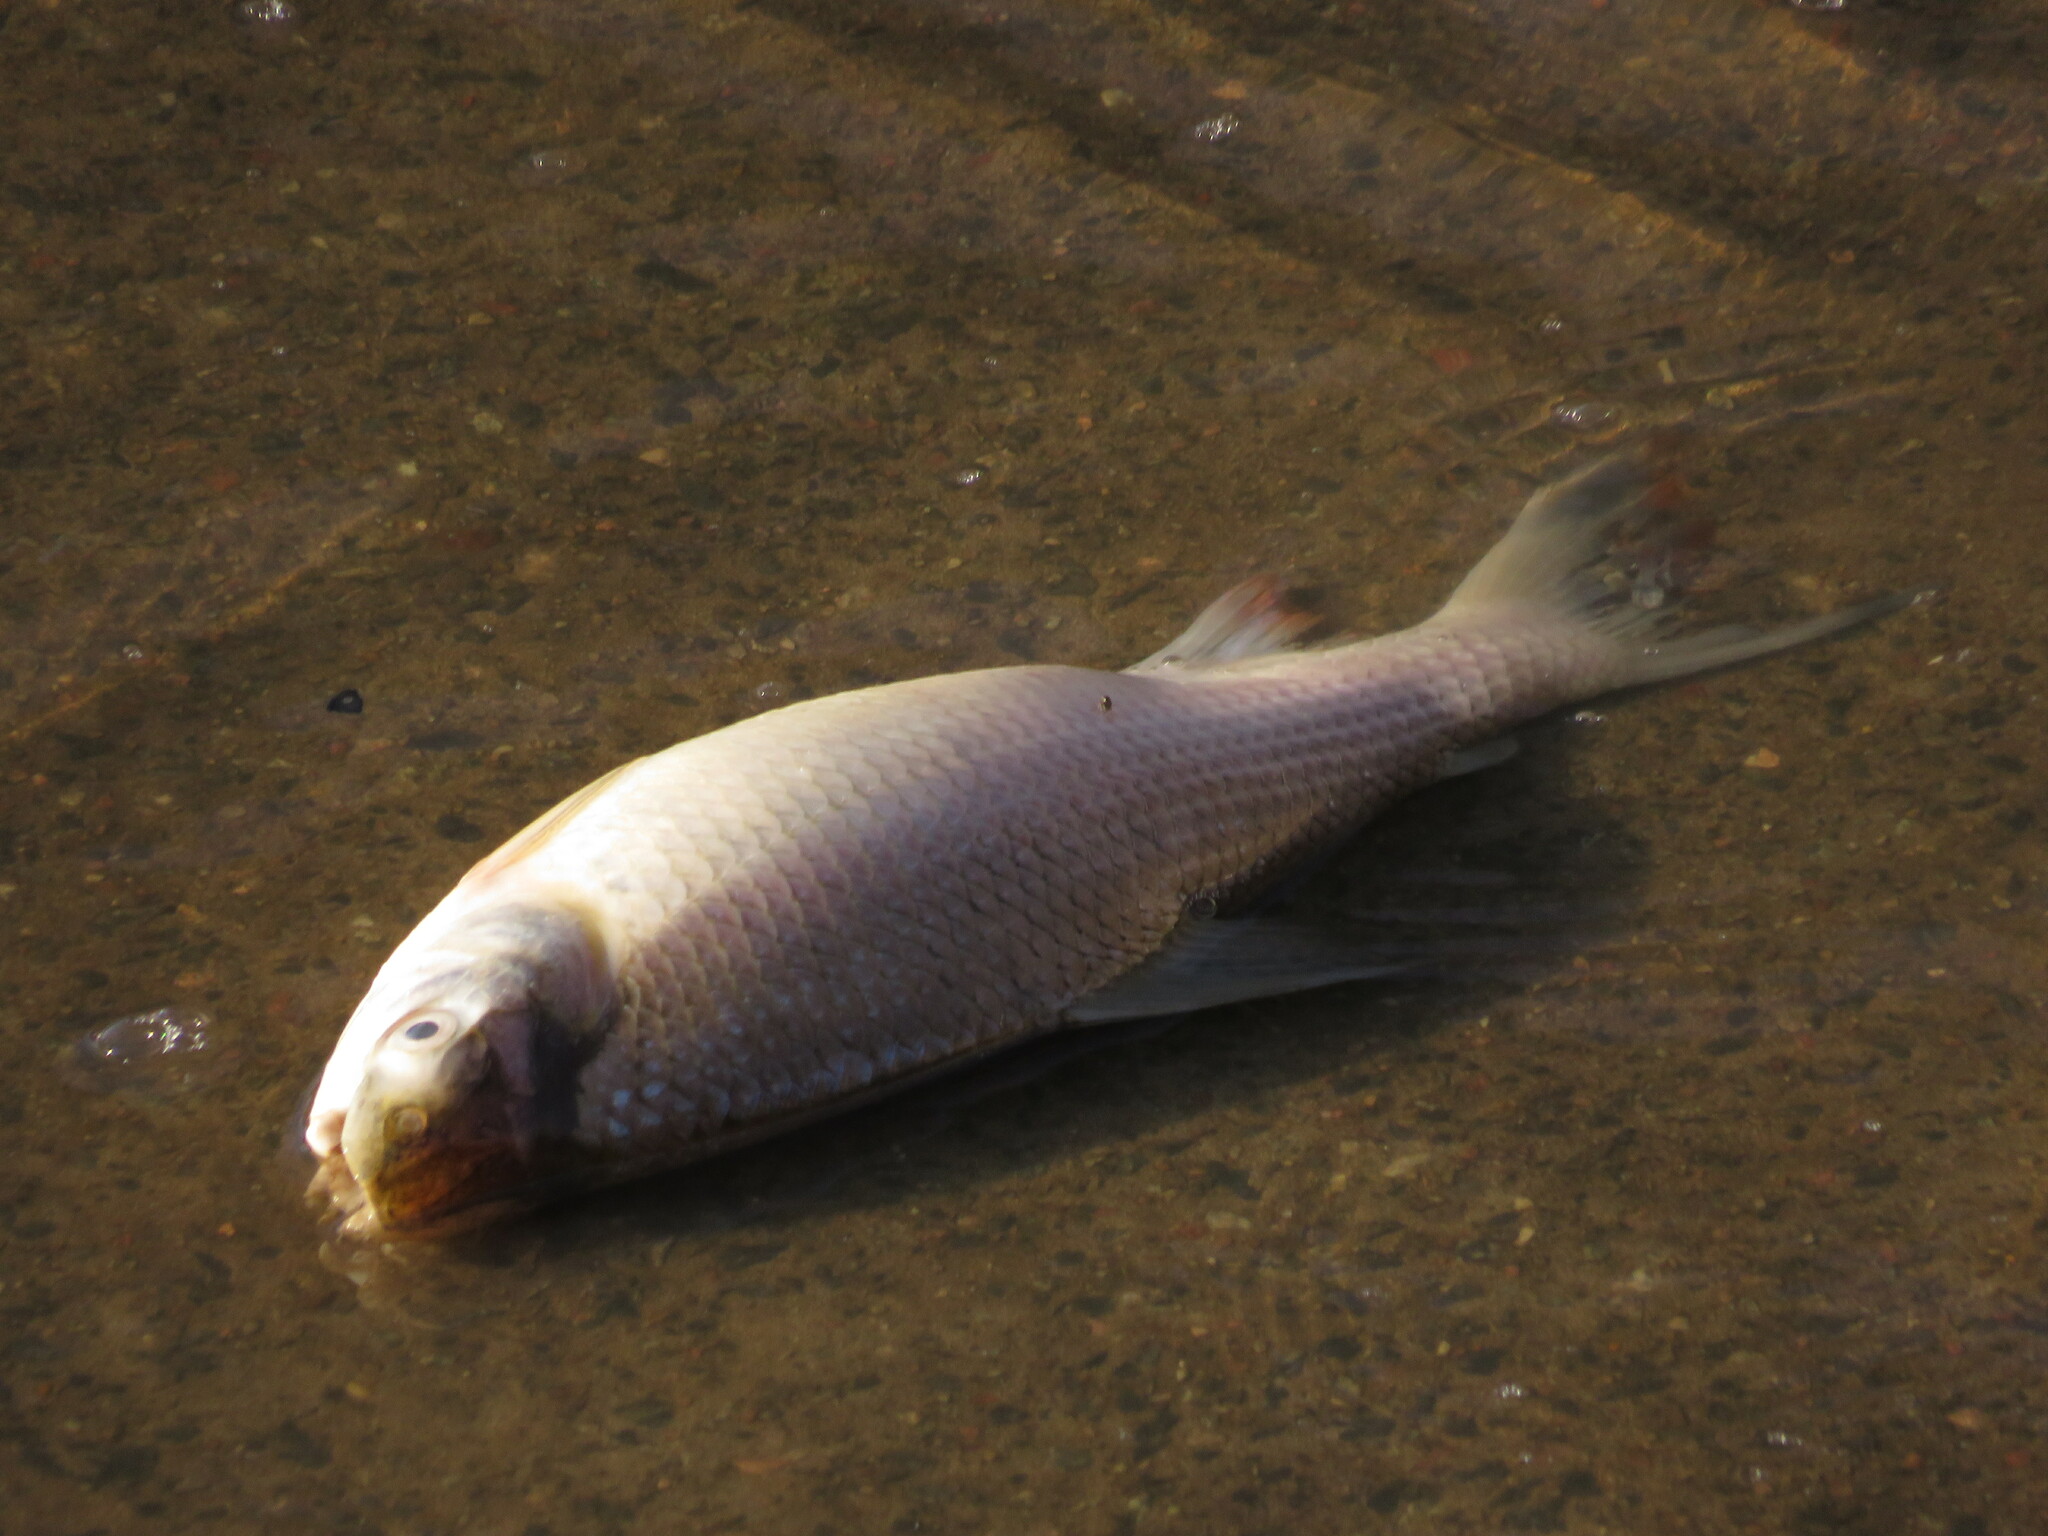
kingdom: Animalia
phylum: Chordata
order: Characiformes
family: Prochilodontidae
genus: Prochilodus
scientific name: Prochilodus lineatus
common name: Curimbata
